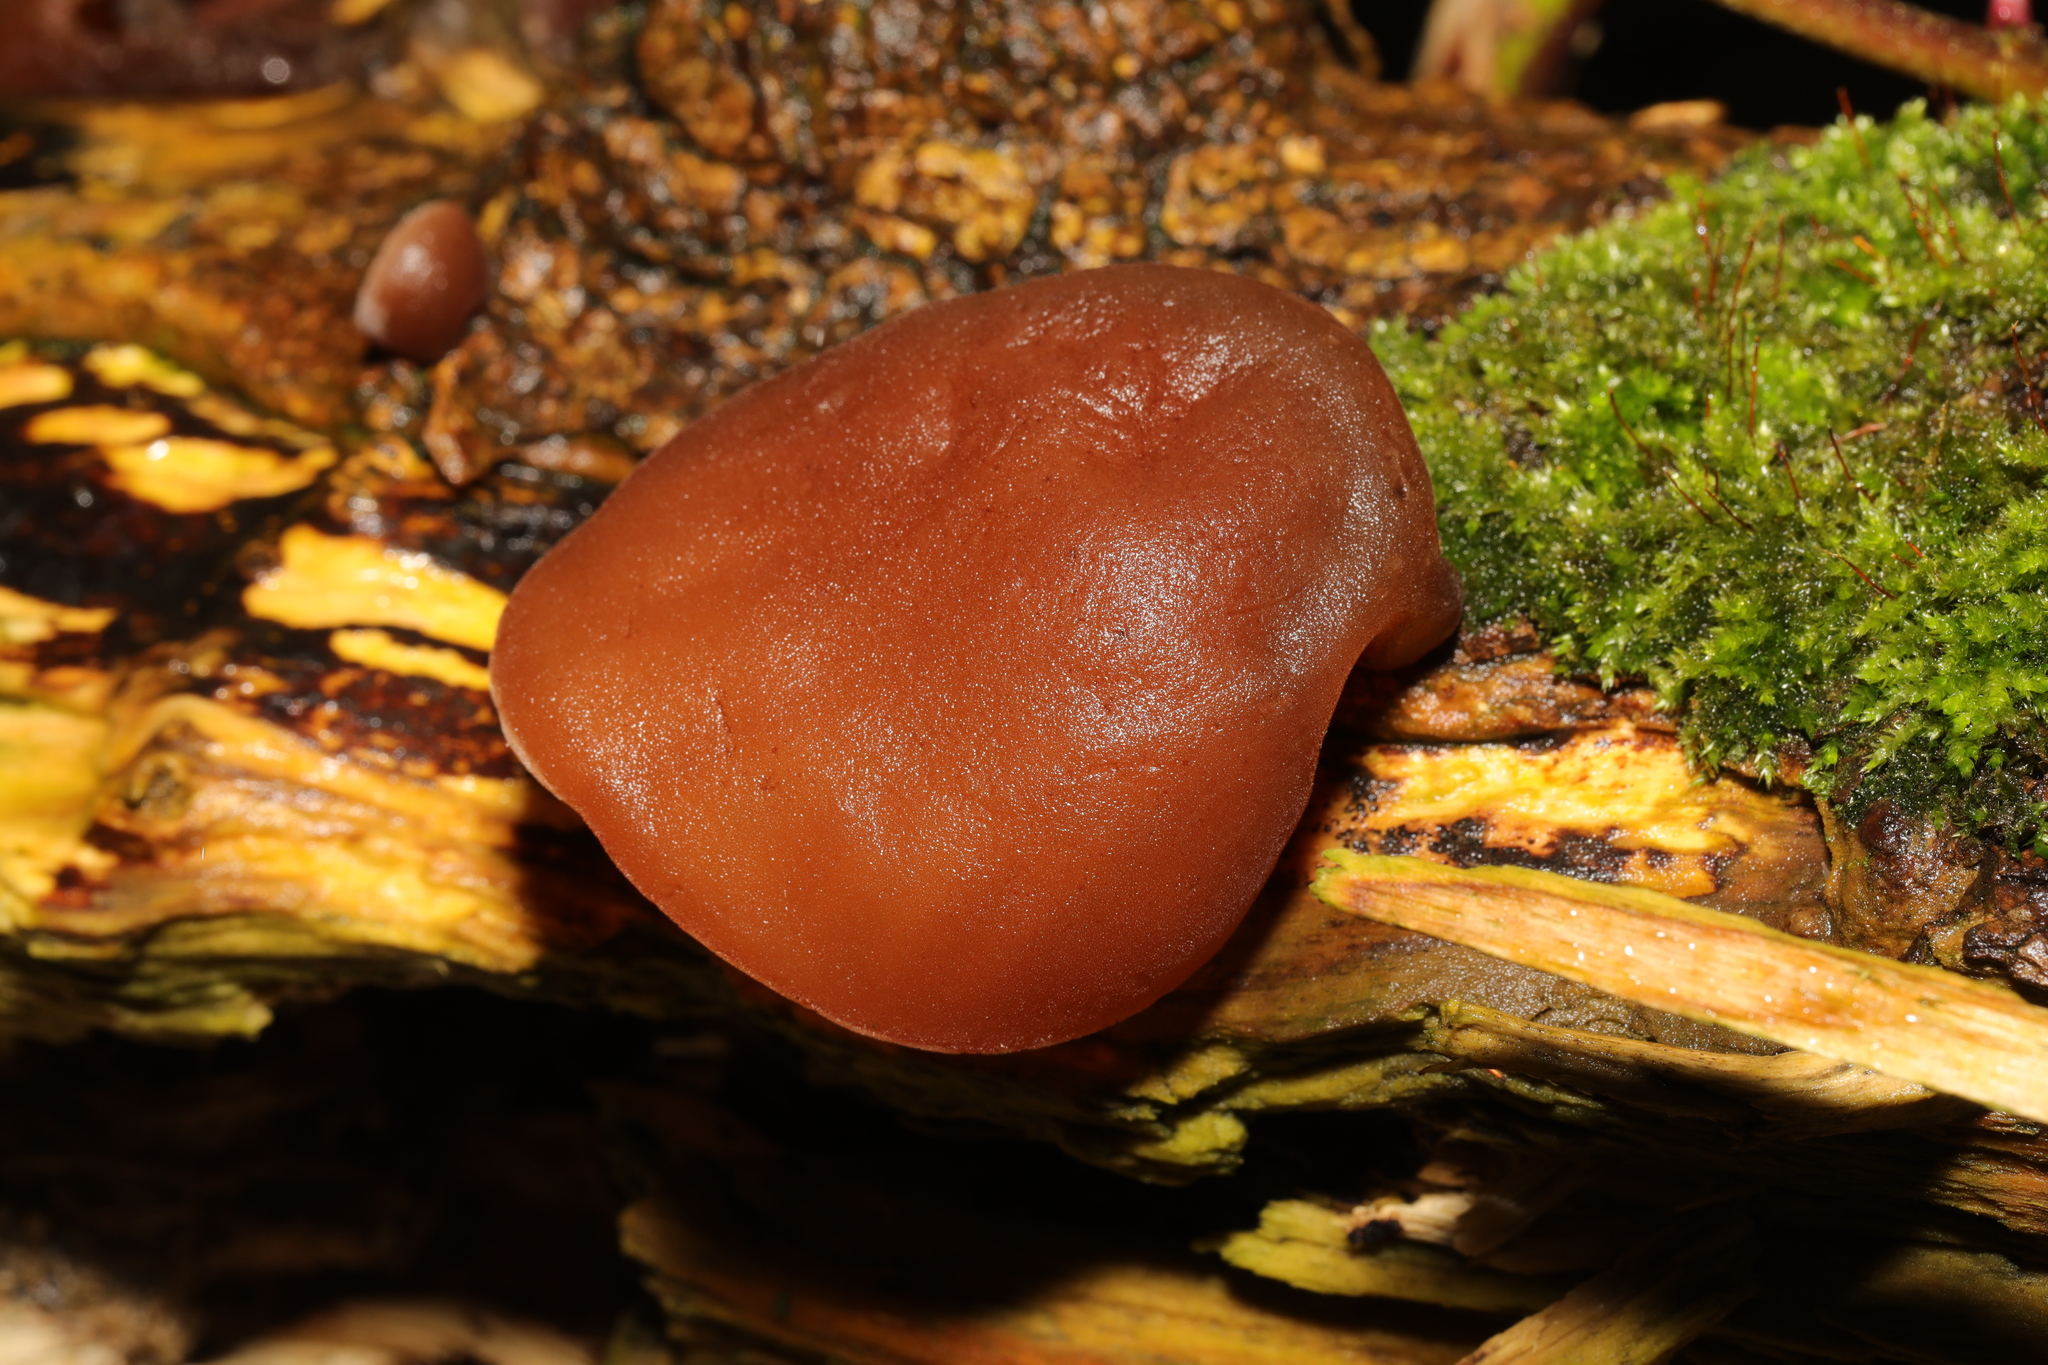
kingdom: Fungi
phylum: Basidiomycota
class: Agaricomycetes
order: Auriculariales
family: Auriculariaceae
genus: Auricularia
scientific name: Auricularia auricula-judae
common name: Jelly ear
